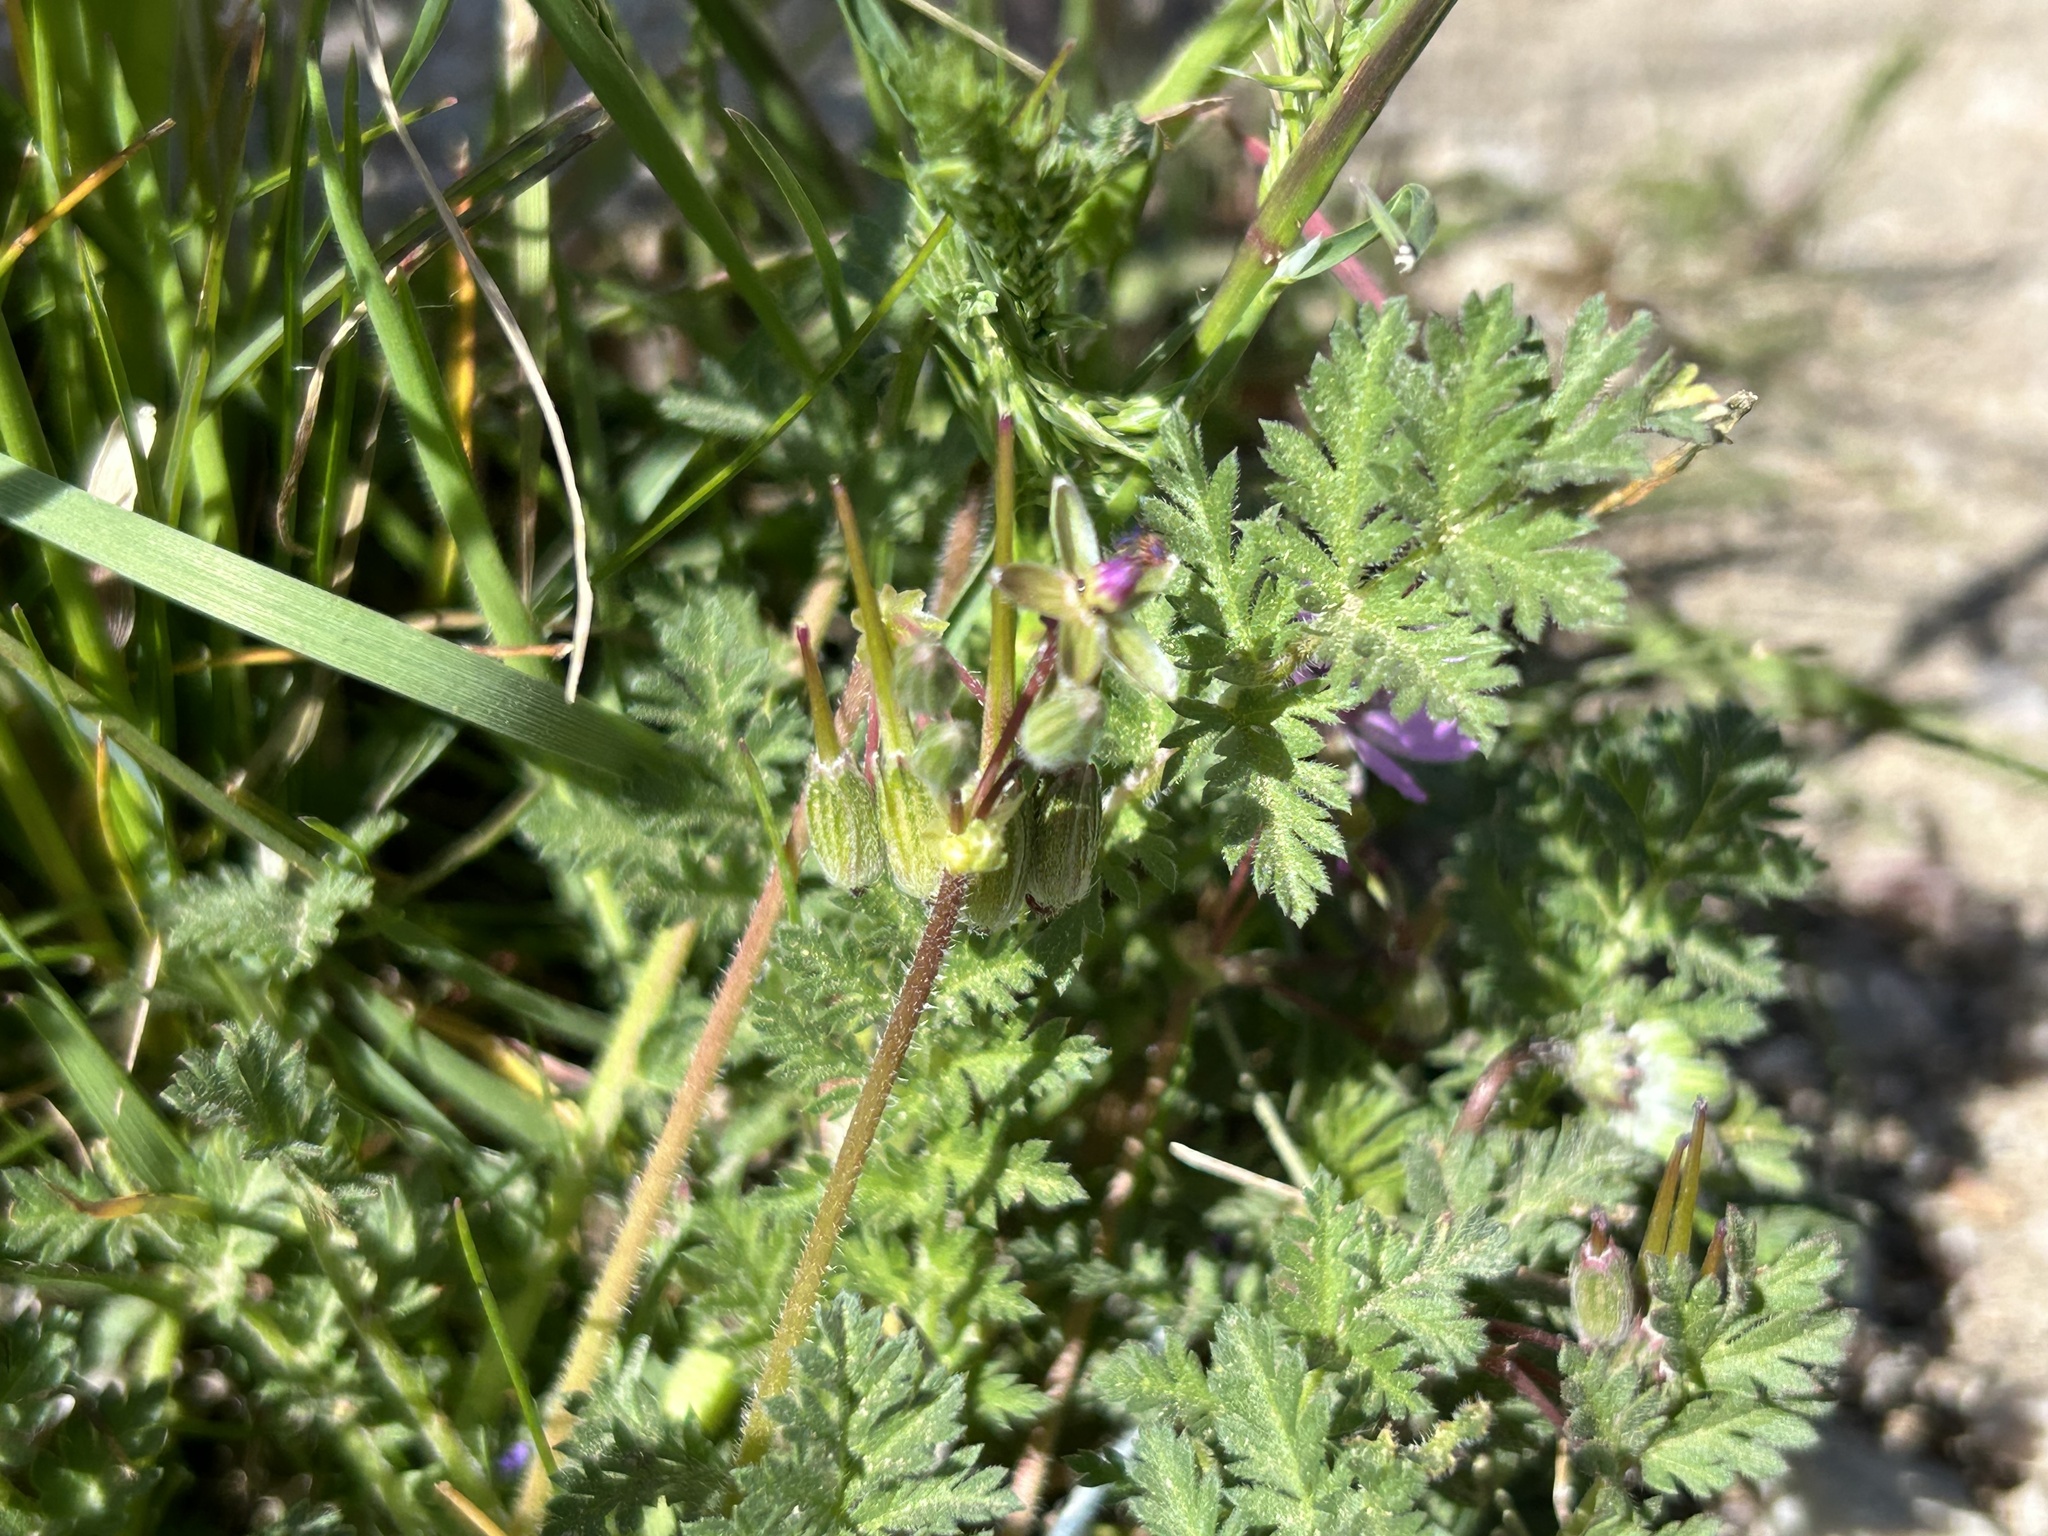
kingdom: Plantae
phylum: Tracheophyta
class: Magnoliopsida
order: Geraniales
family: Geraniaceae
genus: Erodium
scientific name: Erodium cicutarium
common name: Common stork's-bill
